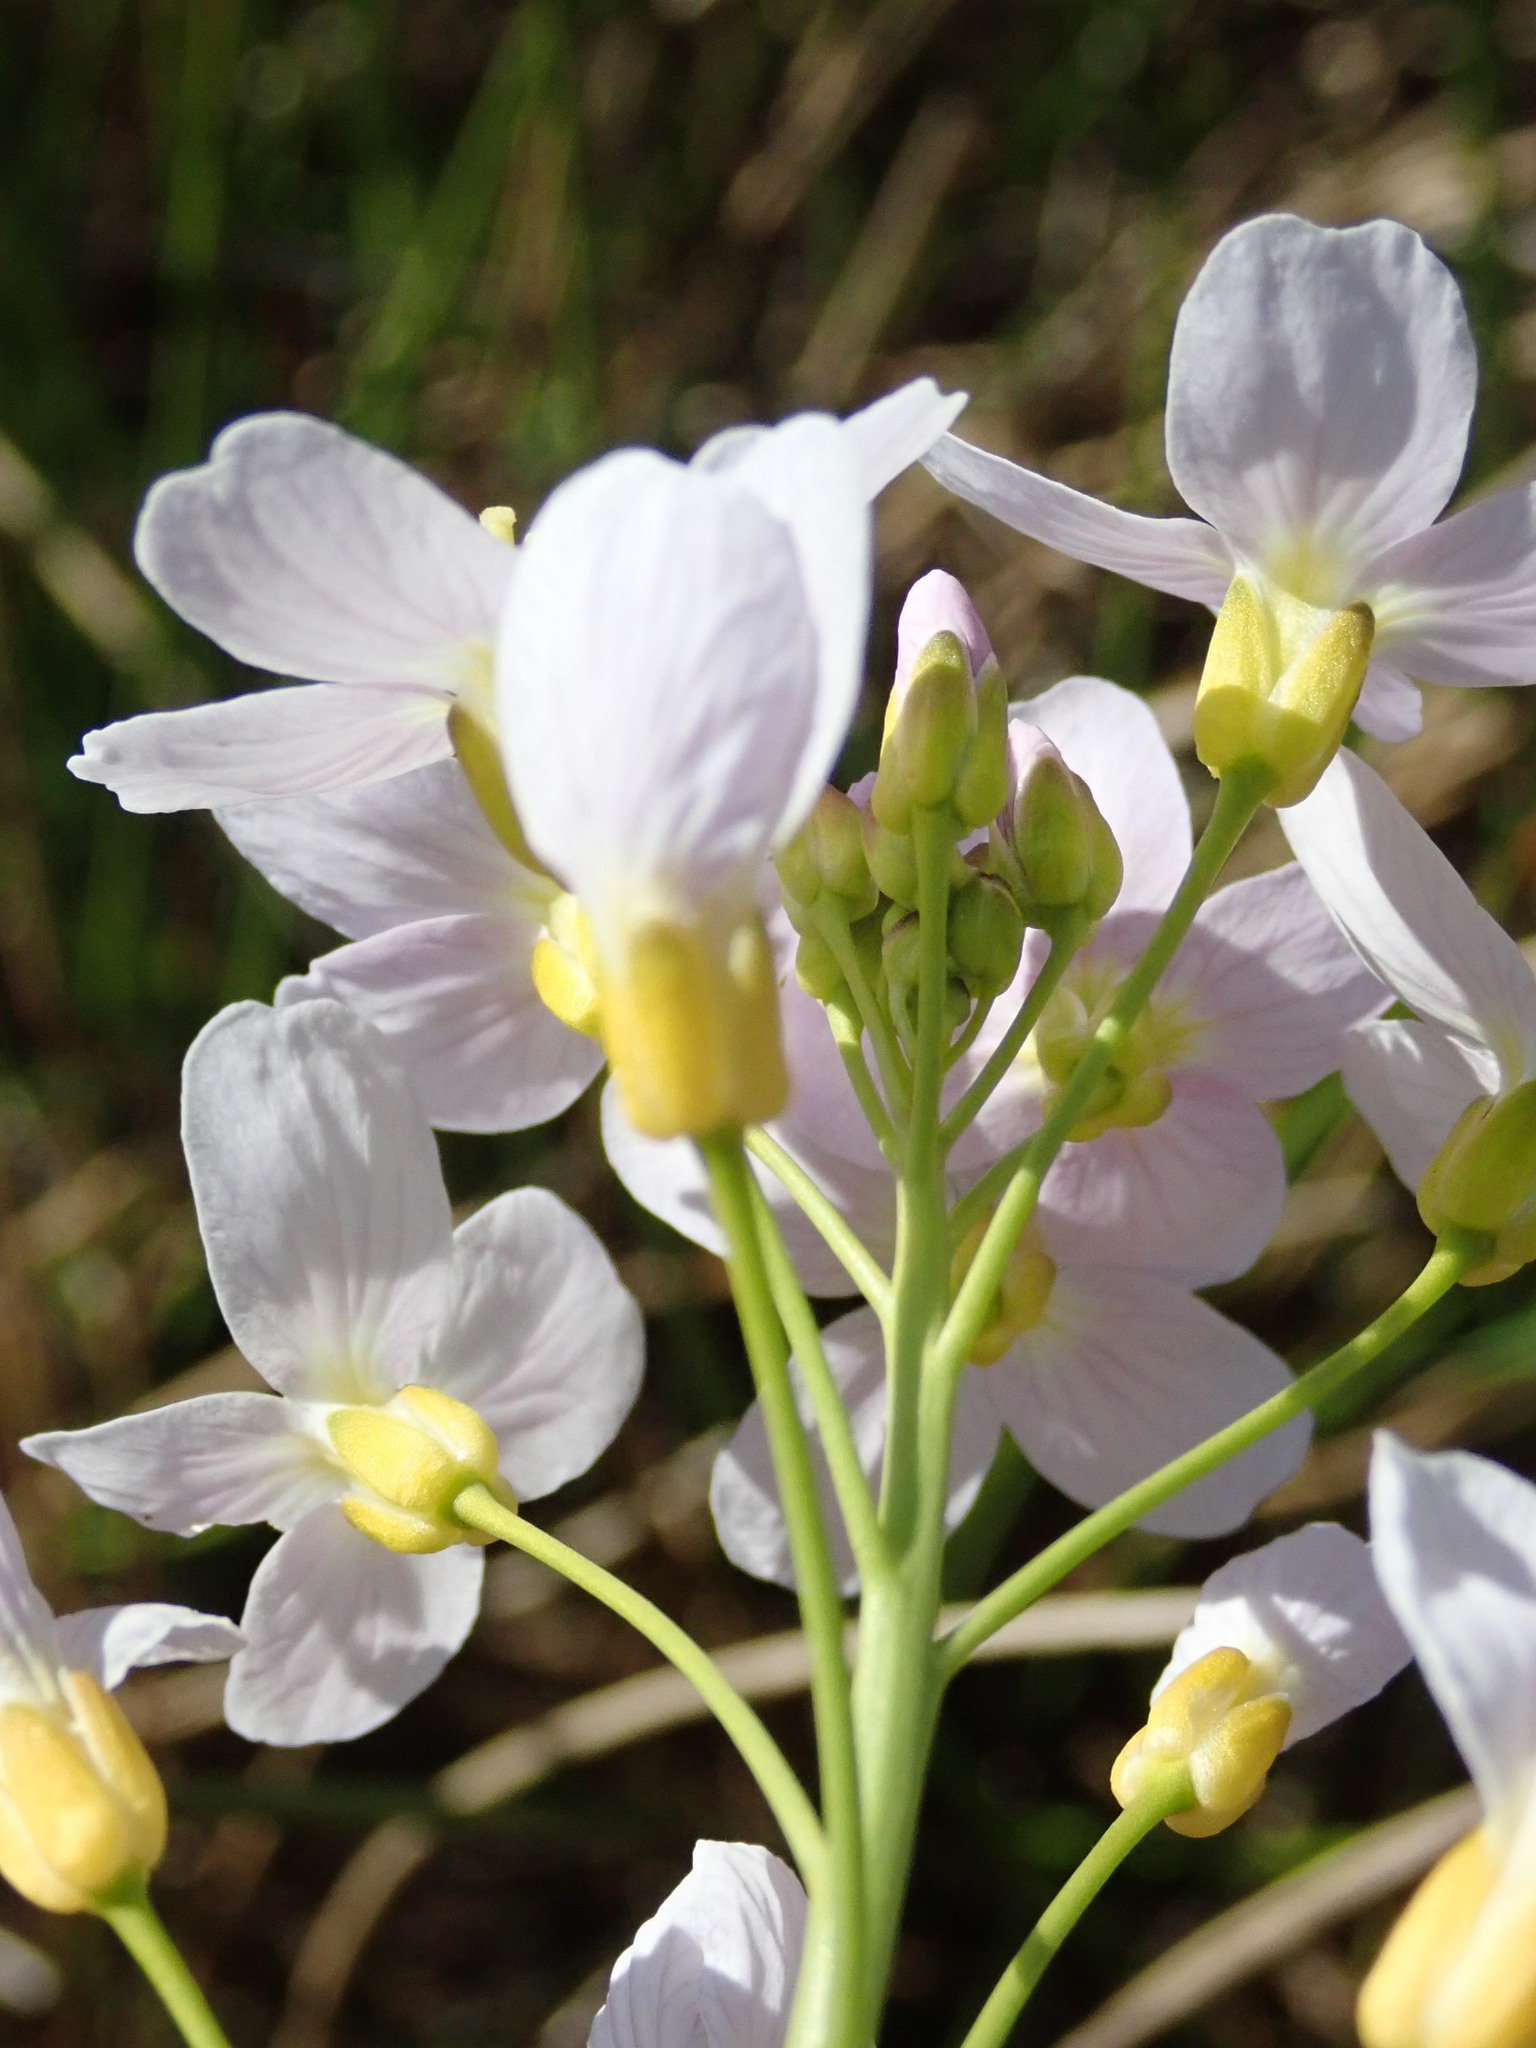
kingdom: Plantae
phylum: Tracheophyta
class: Magnoliopsida
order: Brassicales
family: Brassicaceae
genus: Cardamine
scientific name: Cardamine pratensis
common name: Cuckoo flower
